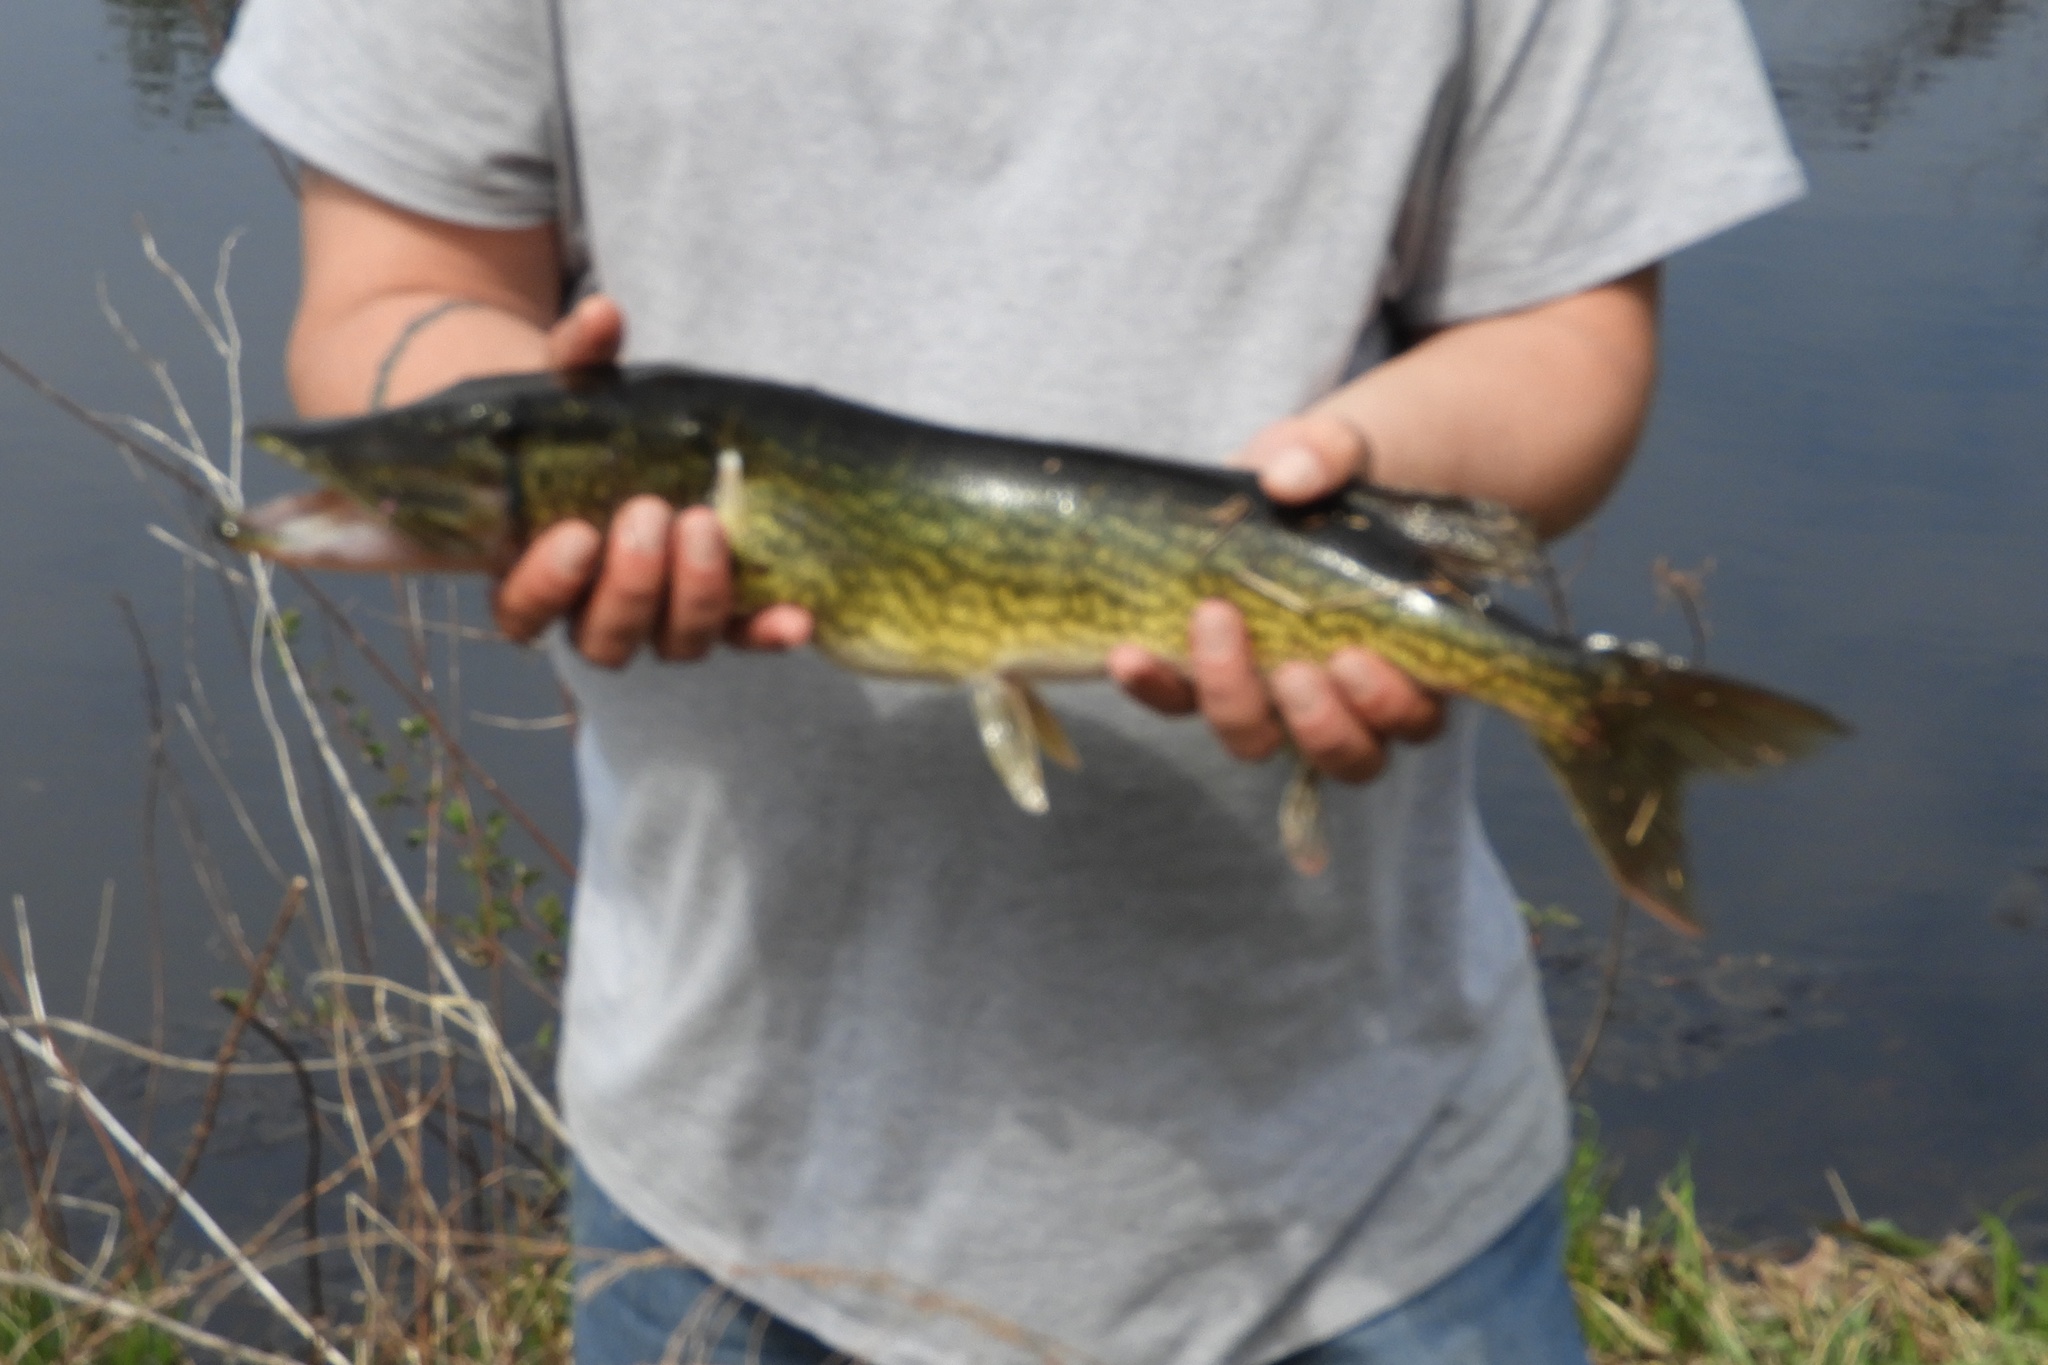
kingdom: Animalia
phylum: Chordata
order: Esociformes
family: Esocidae
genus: Esox
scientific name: Esox niger
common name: Chain pickerel
